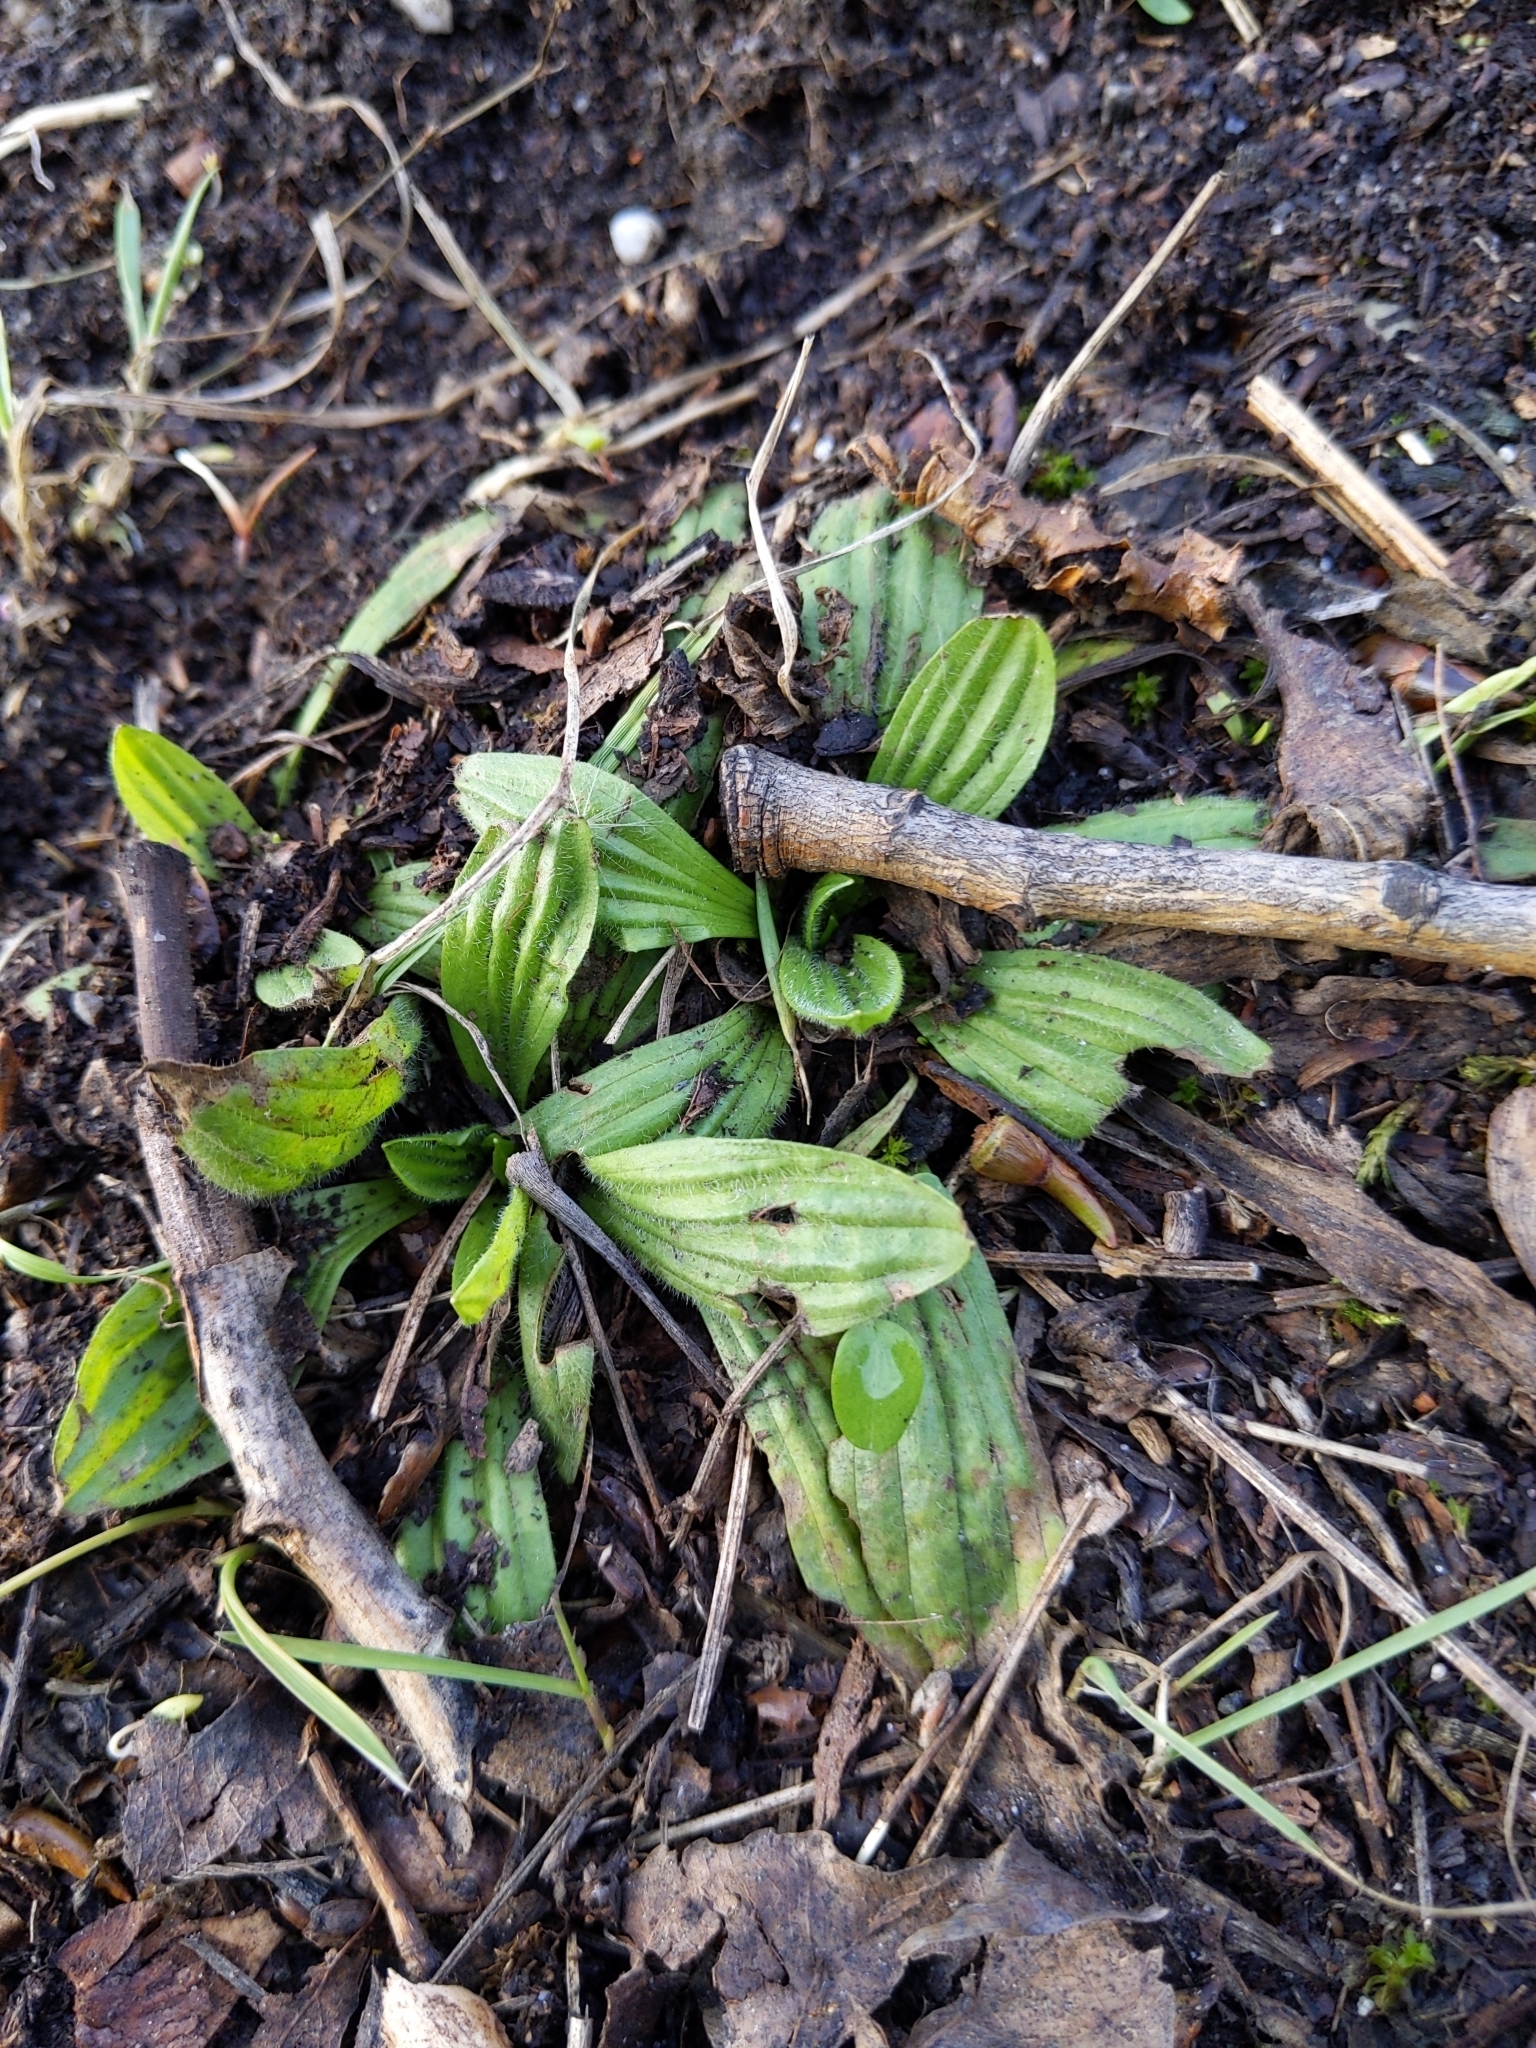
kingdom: Plantae
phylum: Tracheophyta
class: Magnoliopsida
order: Lamiales
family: Plantaginaceae
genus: Plantago
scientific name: Plantago lanceolata
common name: Ribwort plantain
